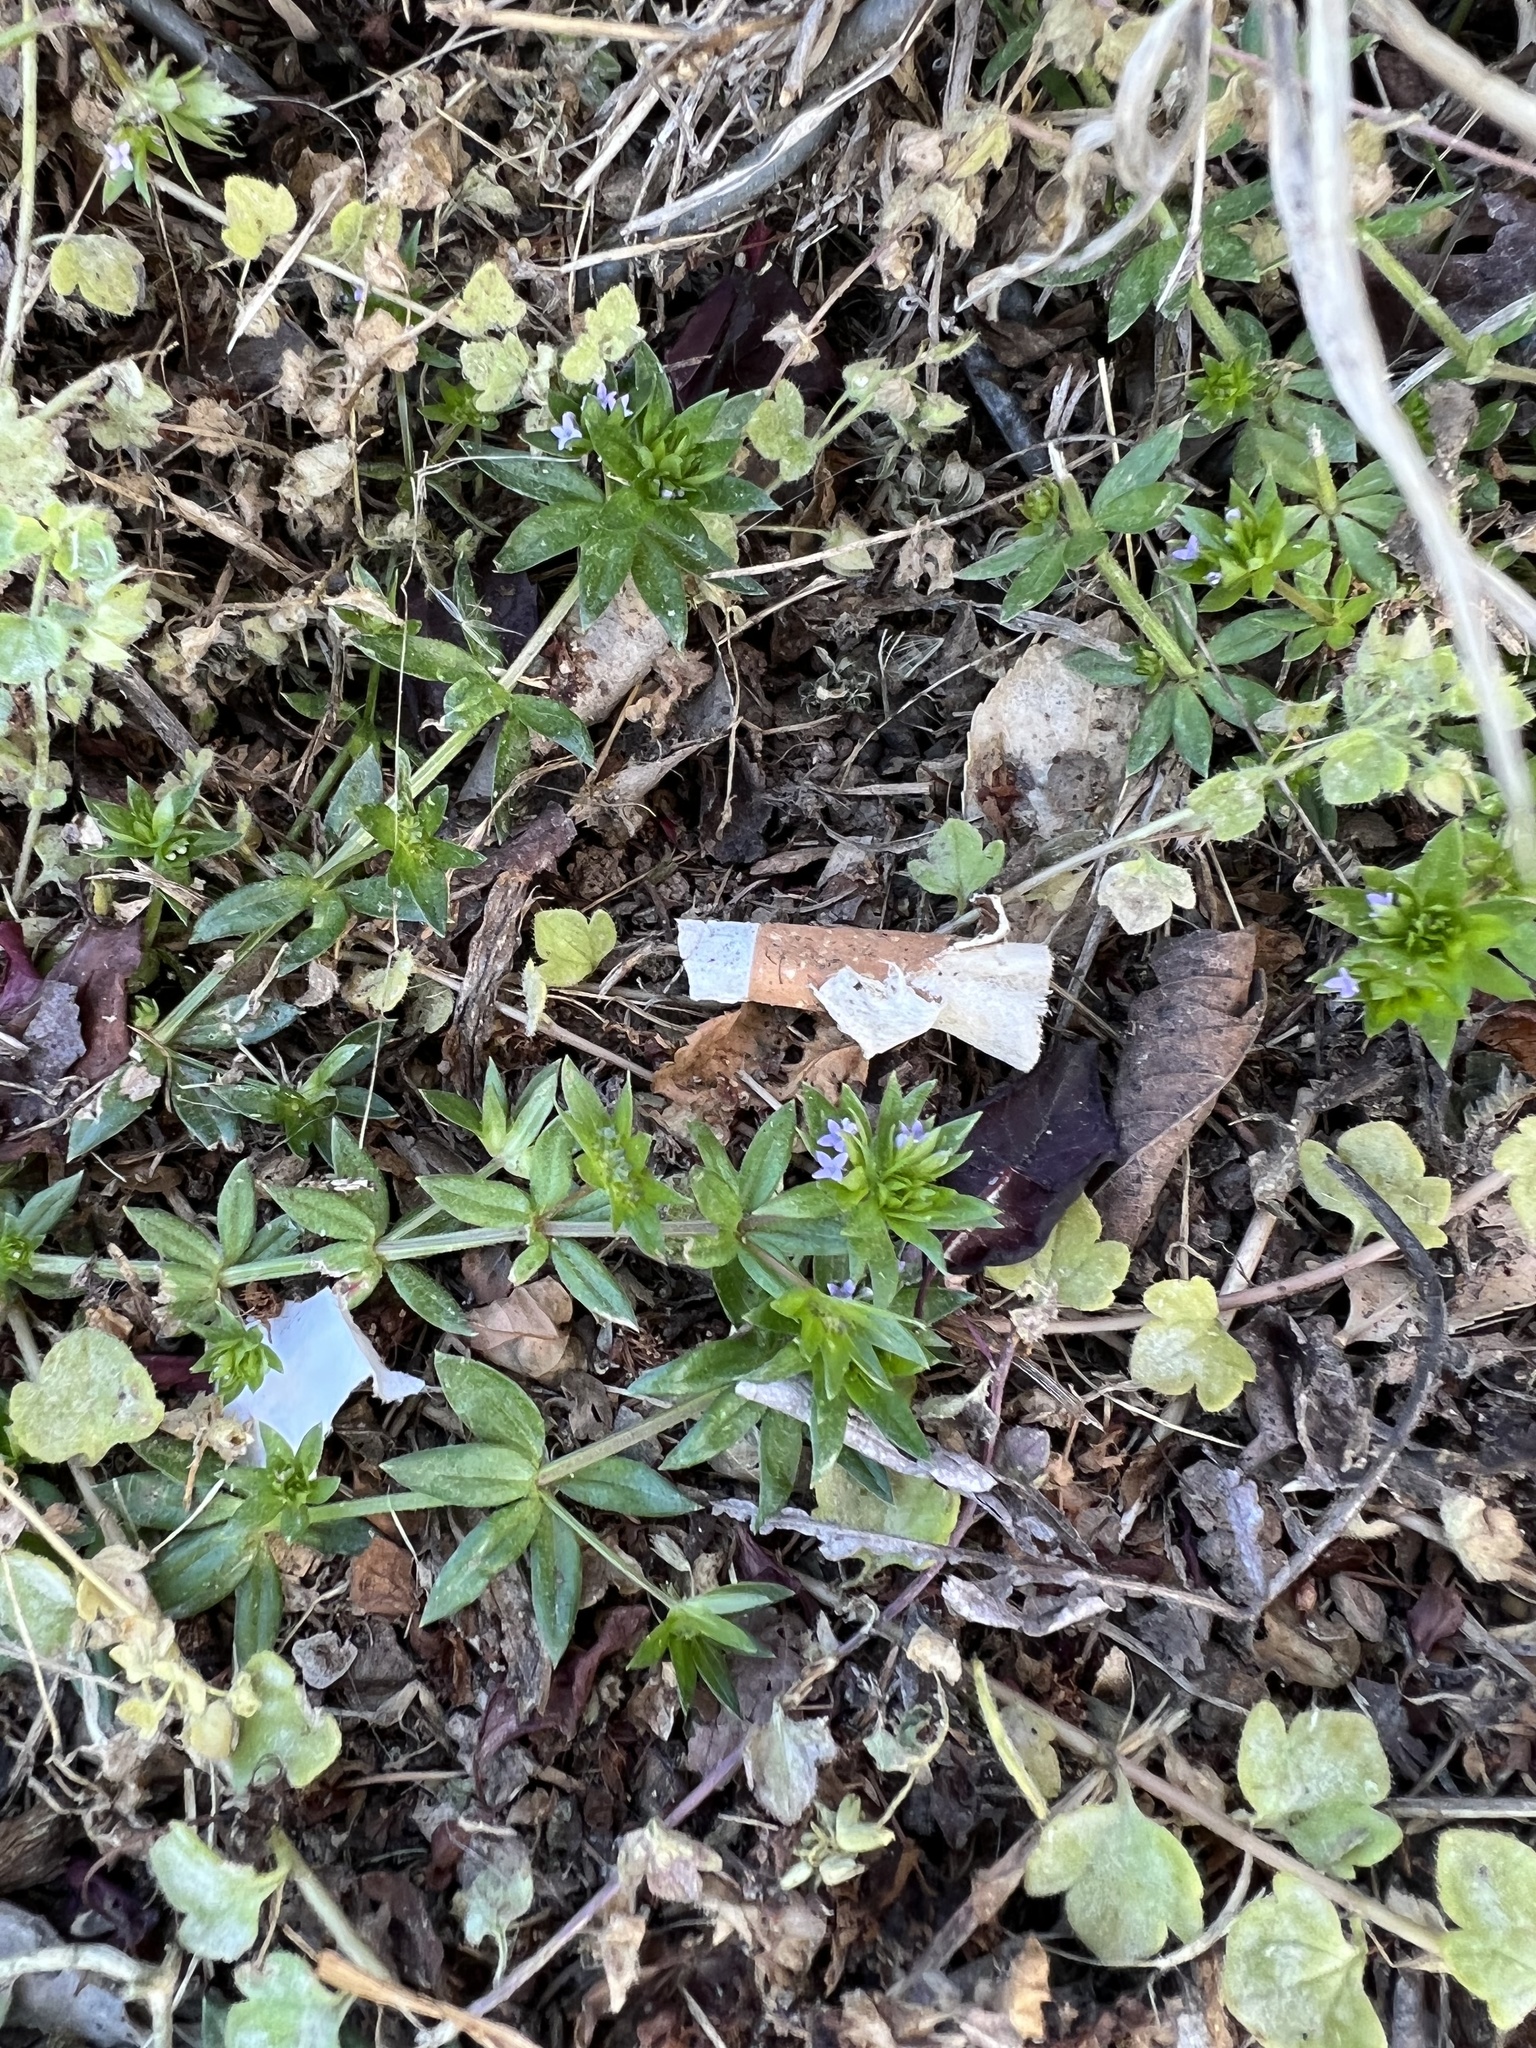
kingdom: Plantae
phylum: Tracheophyta
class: Magnoliopsida
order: Gentianales
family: Rubiaceae
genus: Sherardia
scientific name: Sherardia arvensis
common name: Field madder
